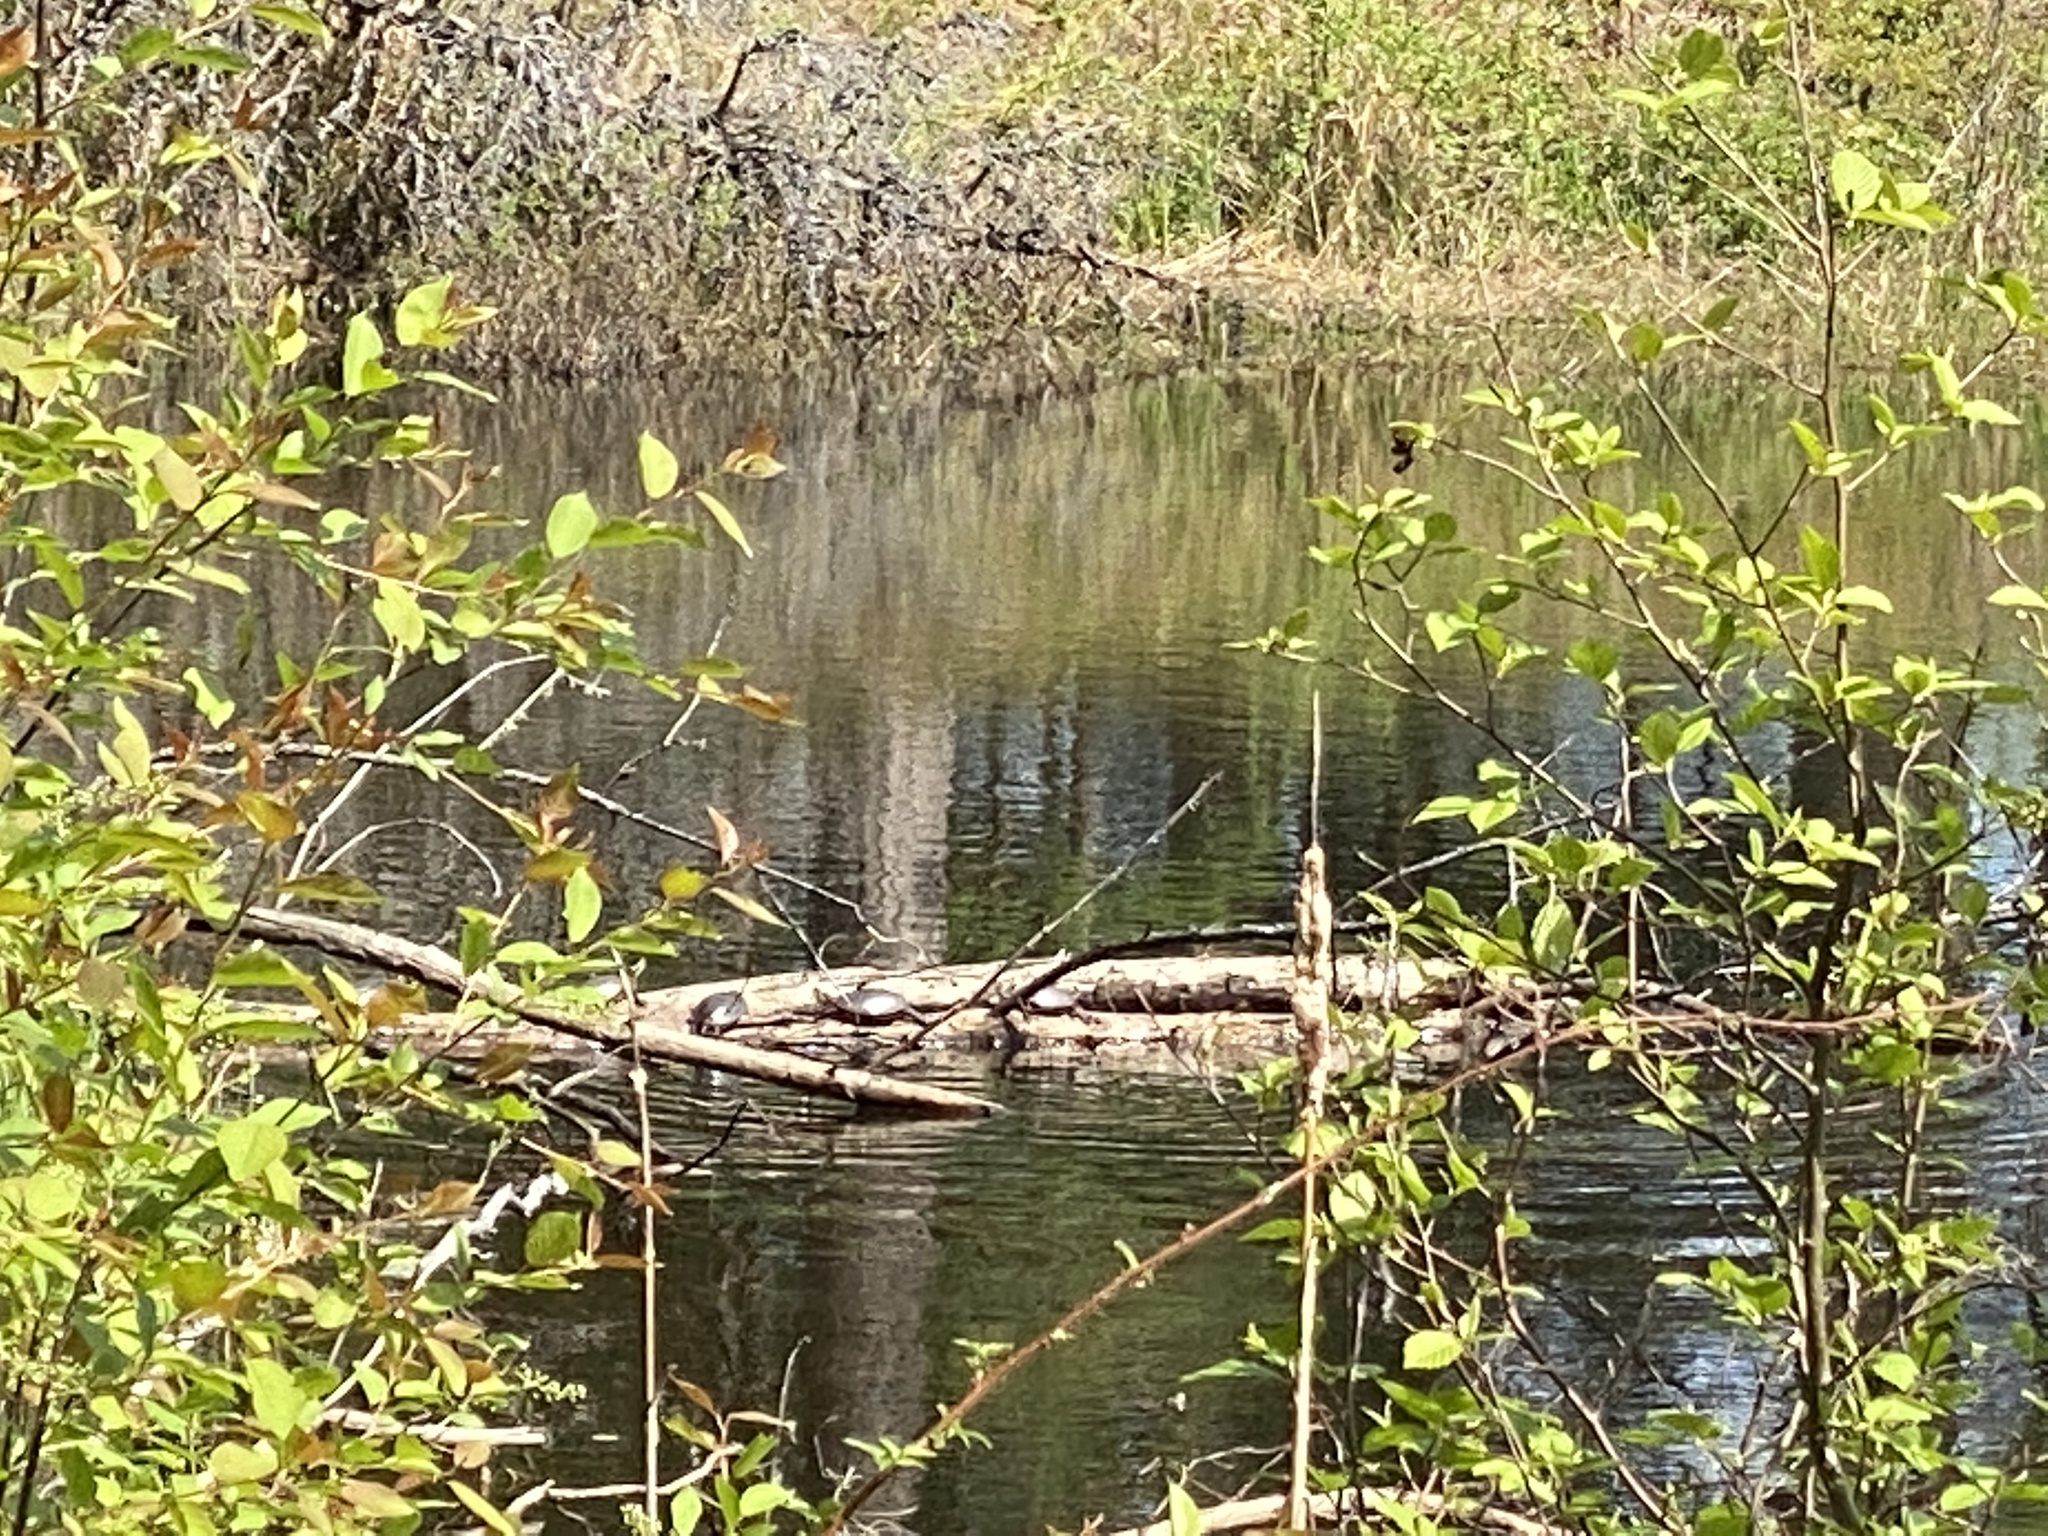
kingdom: Animalia
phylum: Chordata
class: Testudines
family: Emydidae
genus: Chrysemys
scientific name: Chrysemys picta
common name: Painted turtle
